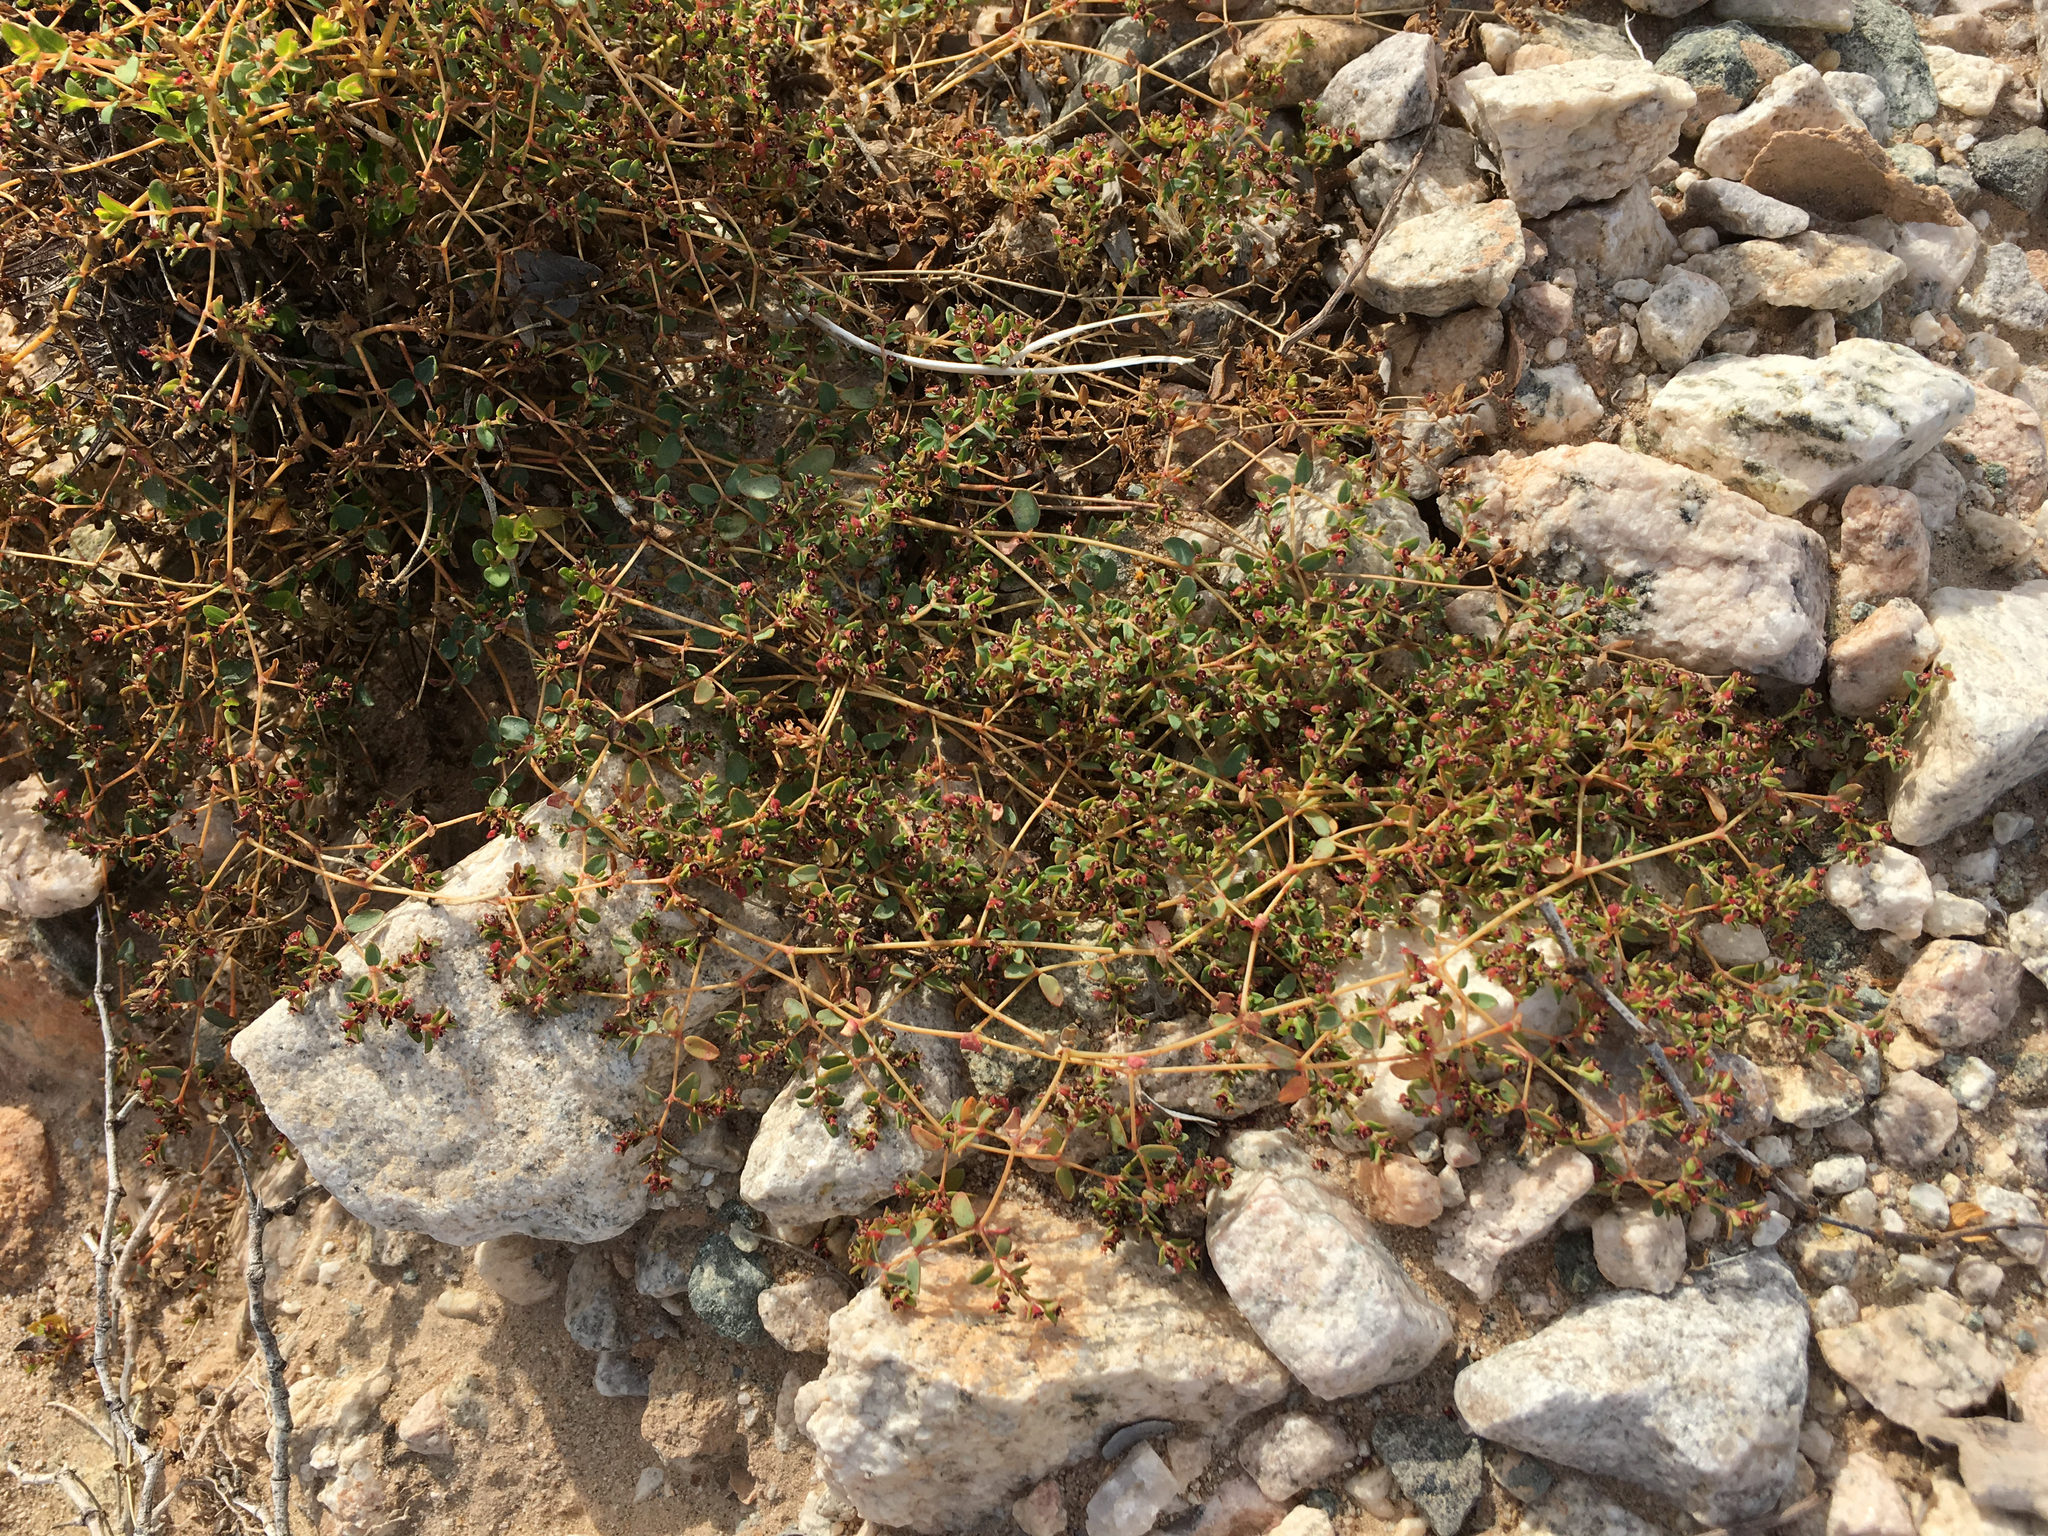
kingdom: Plantae
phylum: Tracheophyta
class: Magnoliopsida
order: Malpighiales
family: Euphorbiaceae
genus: Euphorbia
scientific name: Euphorbia polycarpa
